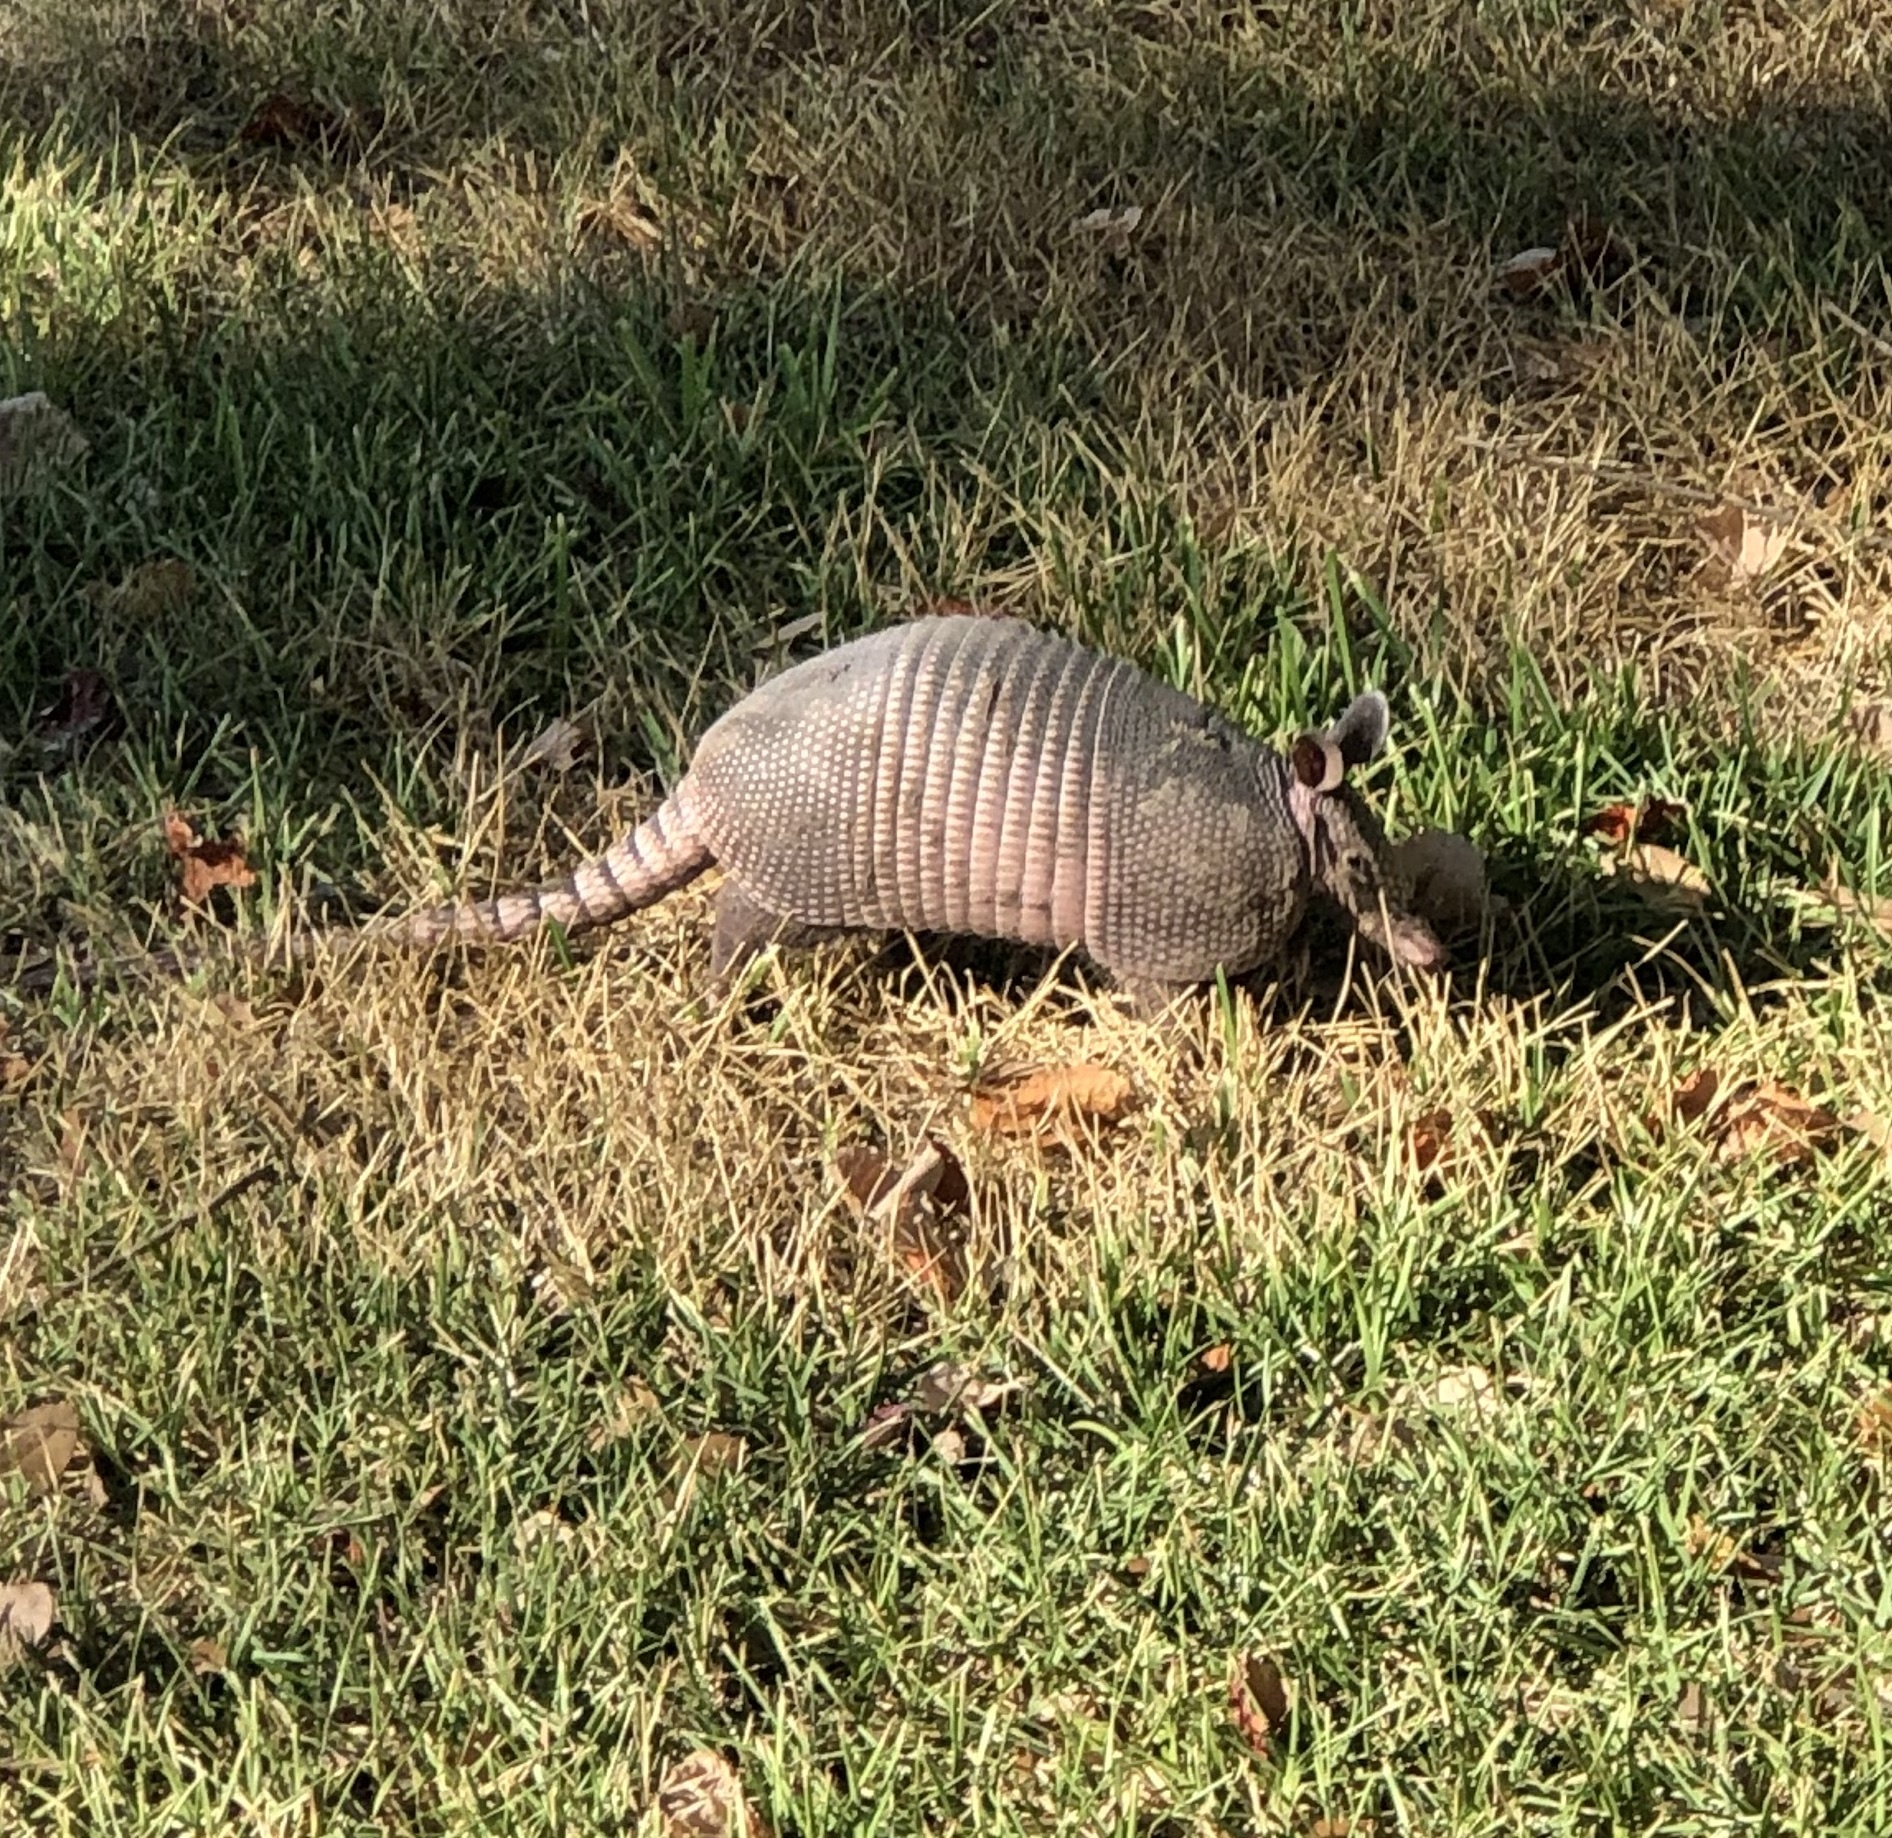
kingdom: Animalia
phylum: Chordata
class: Mammalia
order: Cingulata
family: Dasypodidae
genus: Dasypus
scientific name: Dasypus novemcinctus
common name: Nine-banded armadillo
